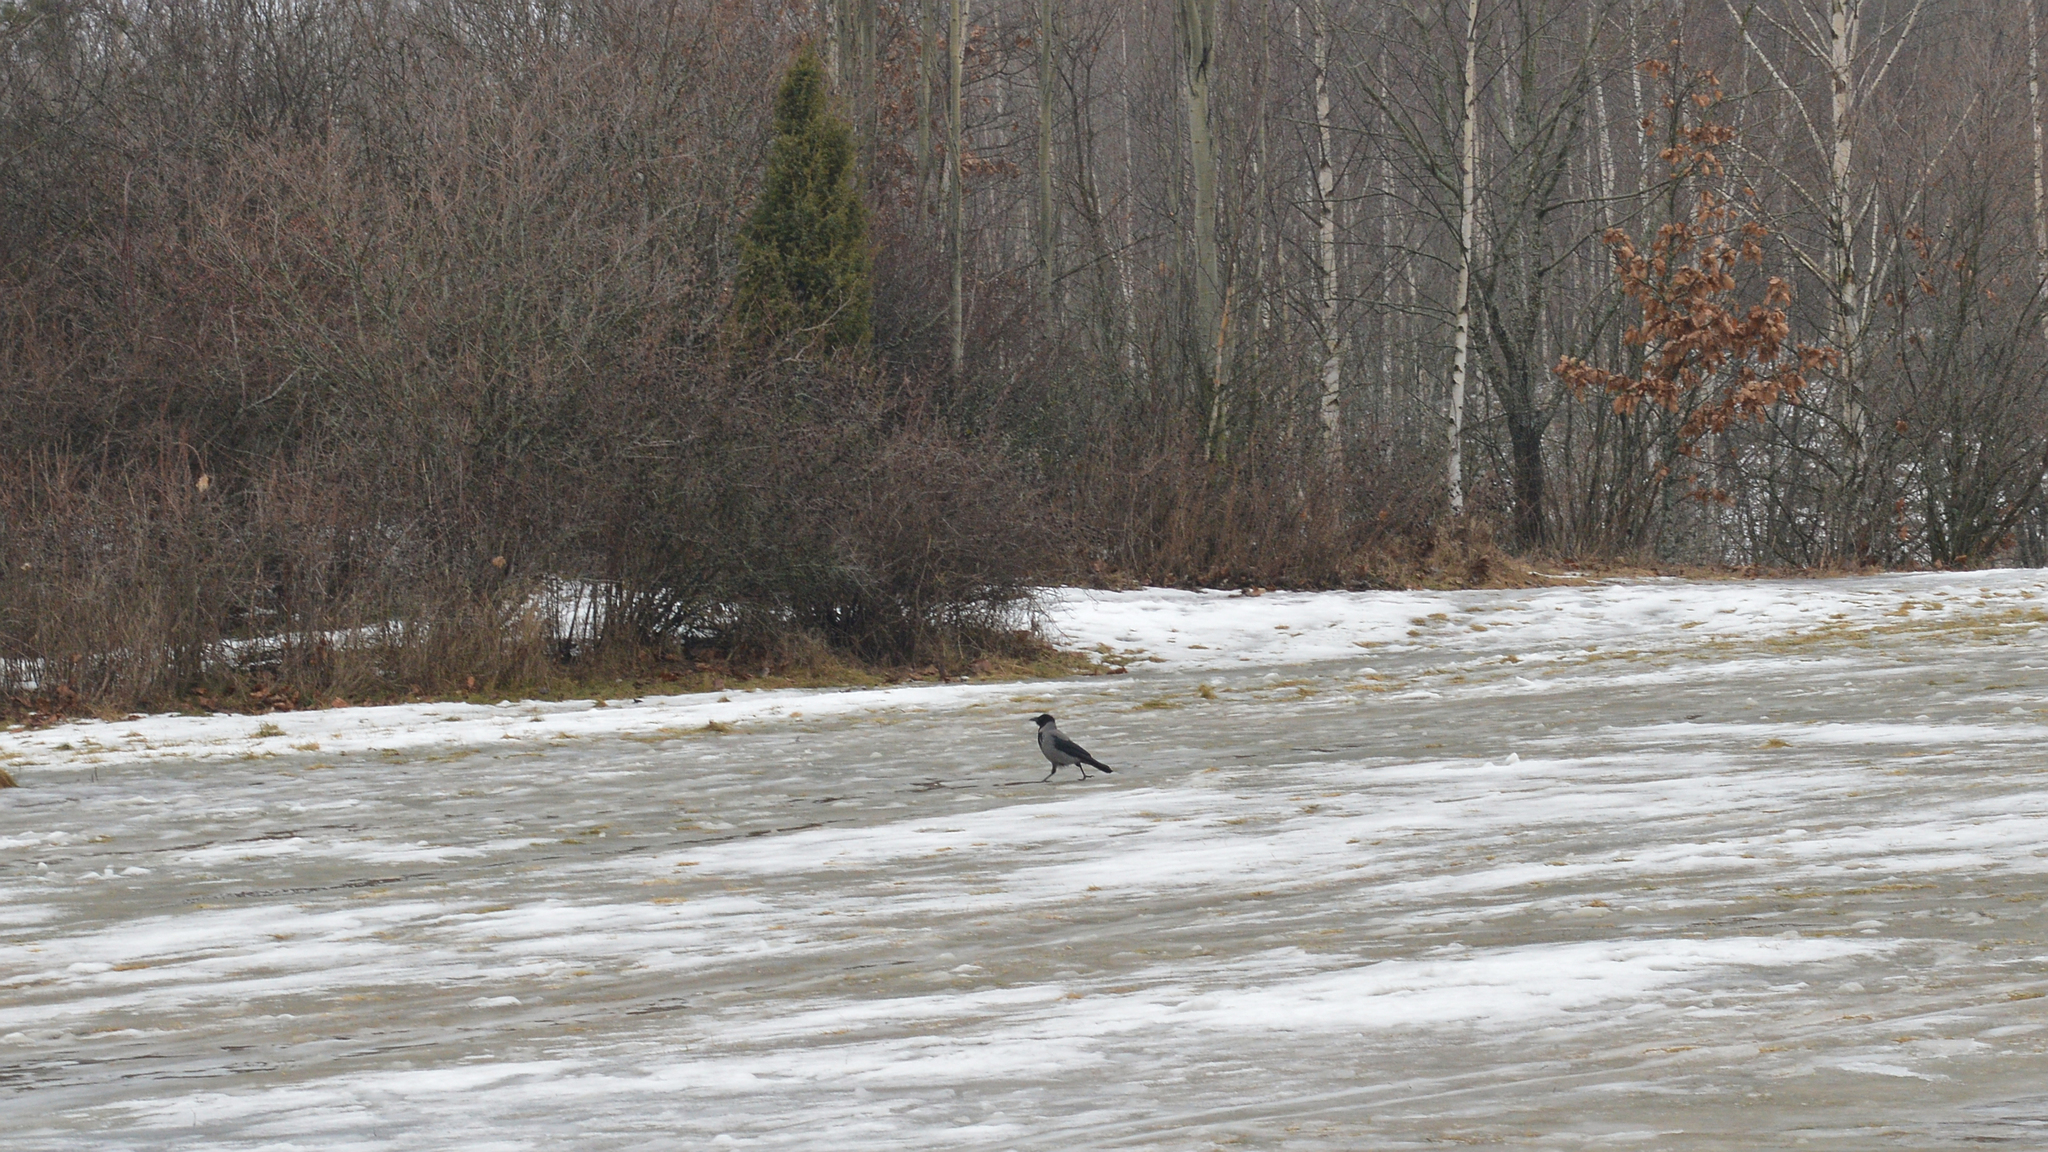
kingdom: Animalia
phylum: Chordata
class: Aves
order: Passeriformes
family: Corvidae
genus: Corvus
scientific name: Corvus cornix
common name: Hooded crow
